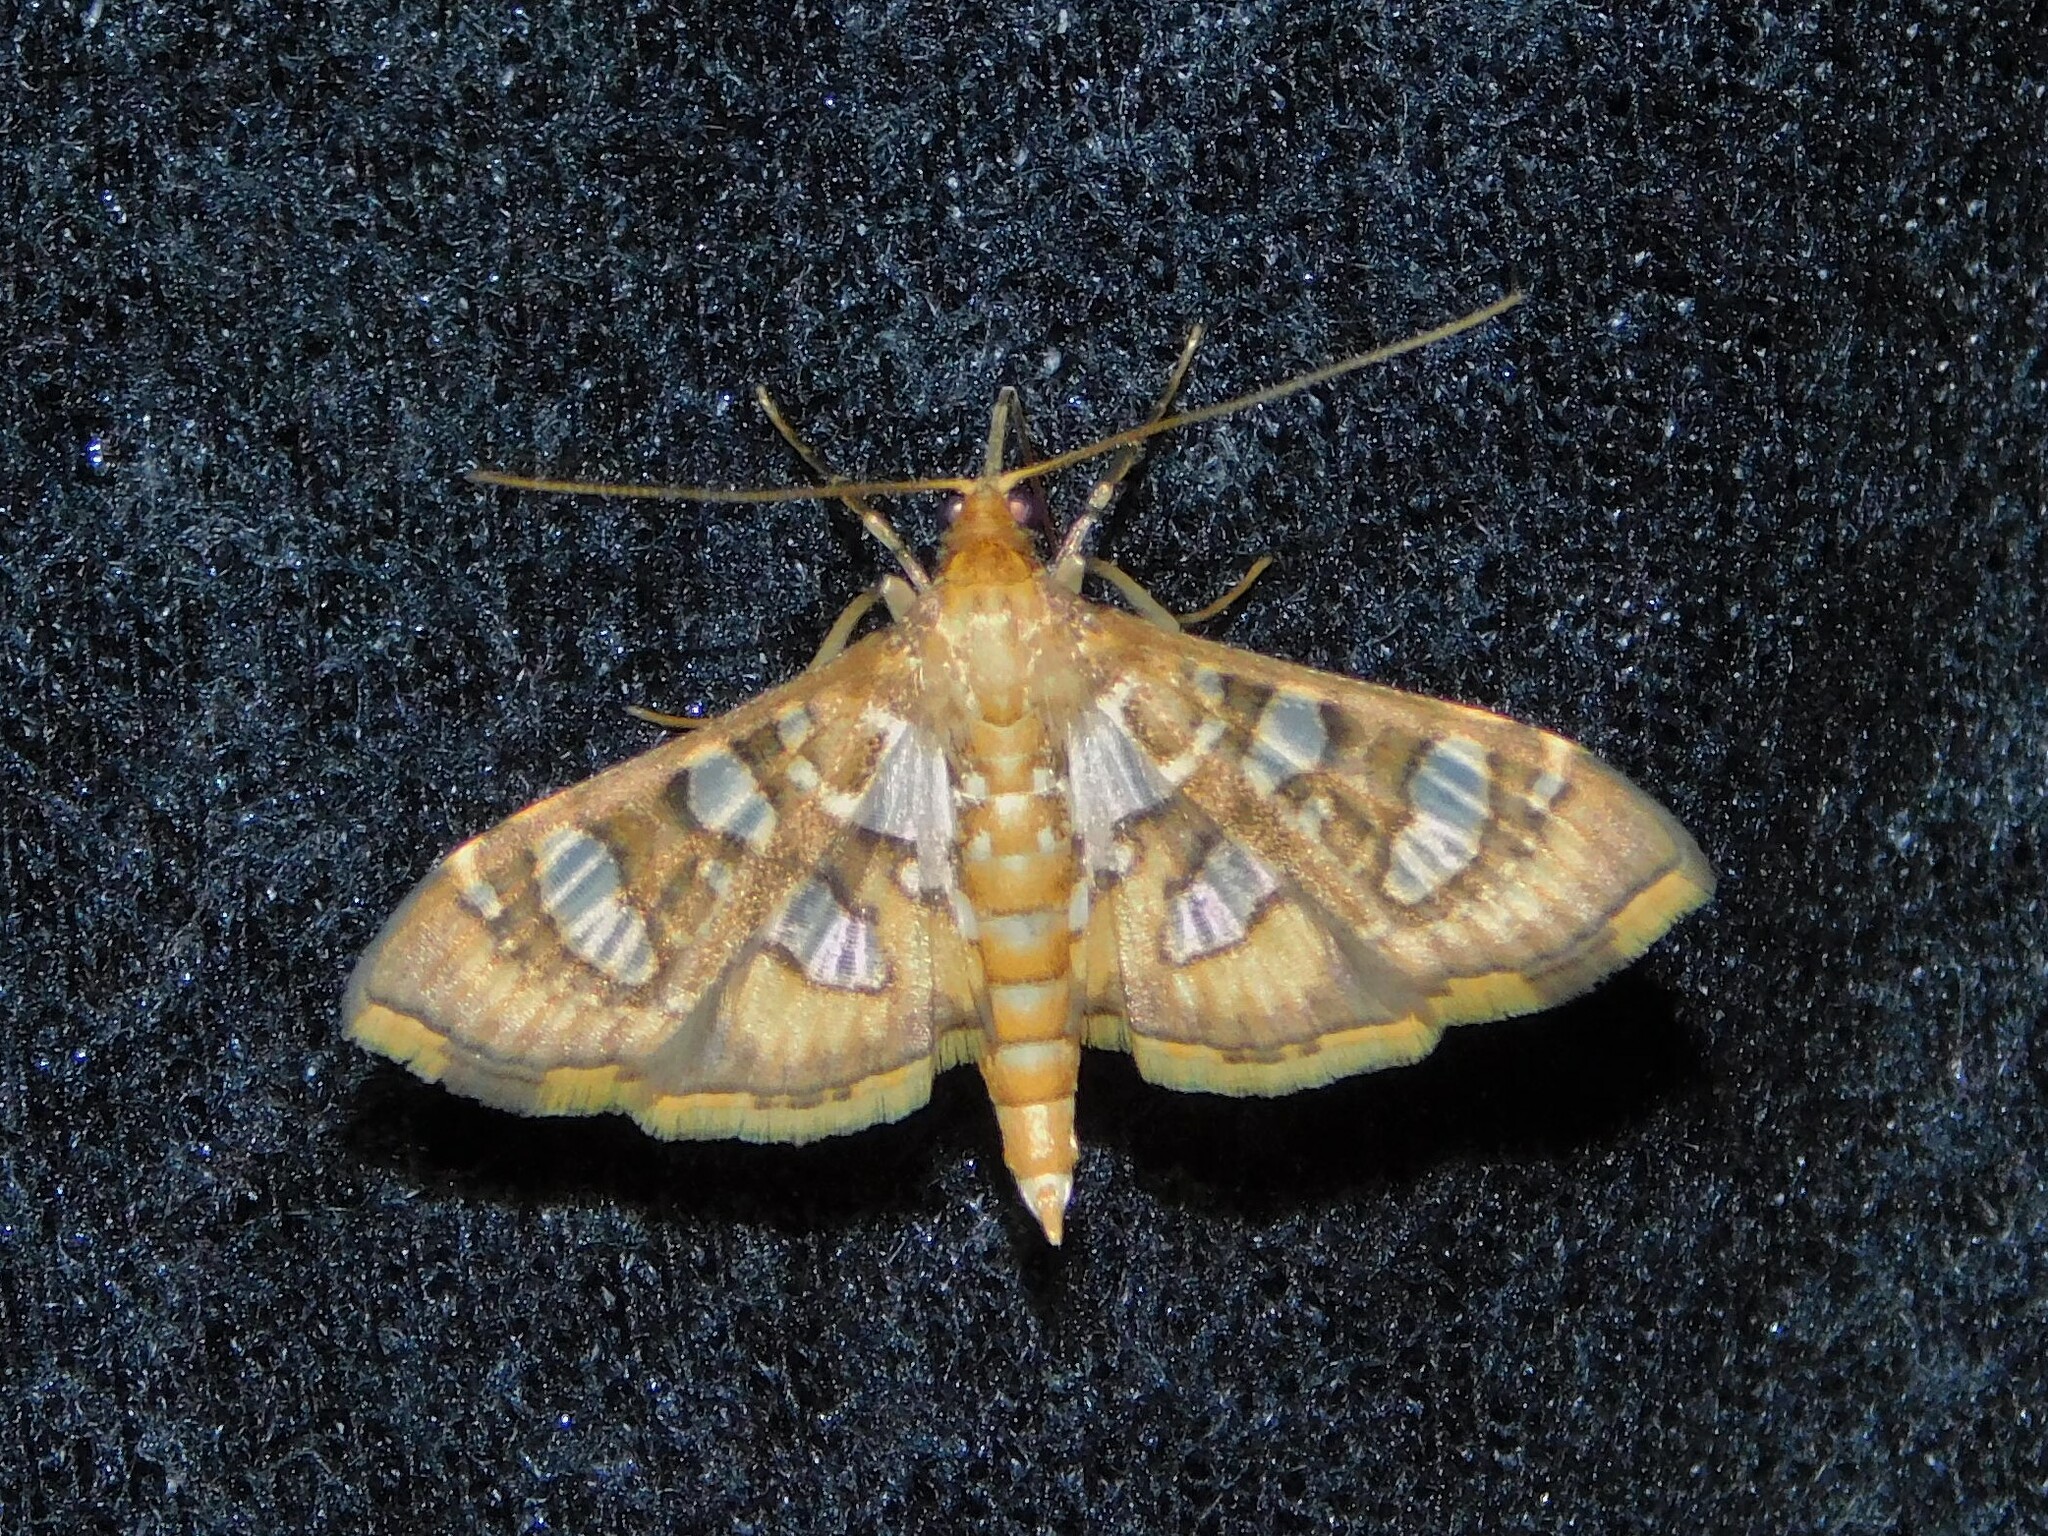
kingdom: Animalia
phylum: Arthropoda
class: Insecta
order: Lepidoptera
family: Crambidae
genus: Nausinoe
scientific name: Nausinoe quadrinalis
